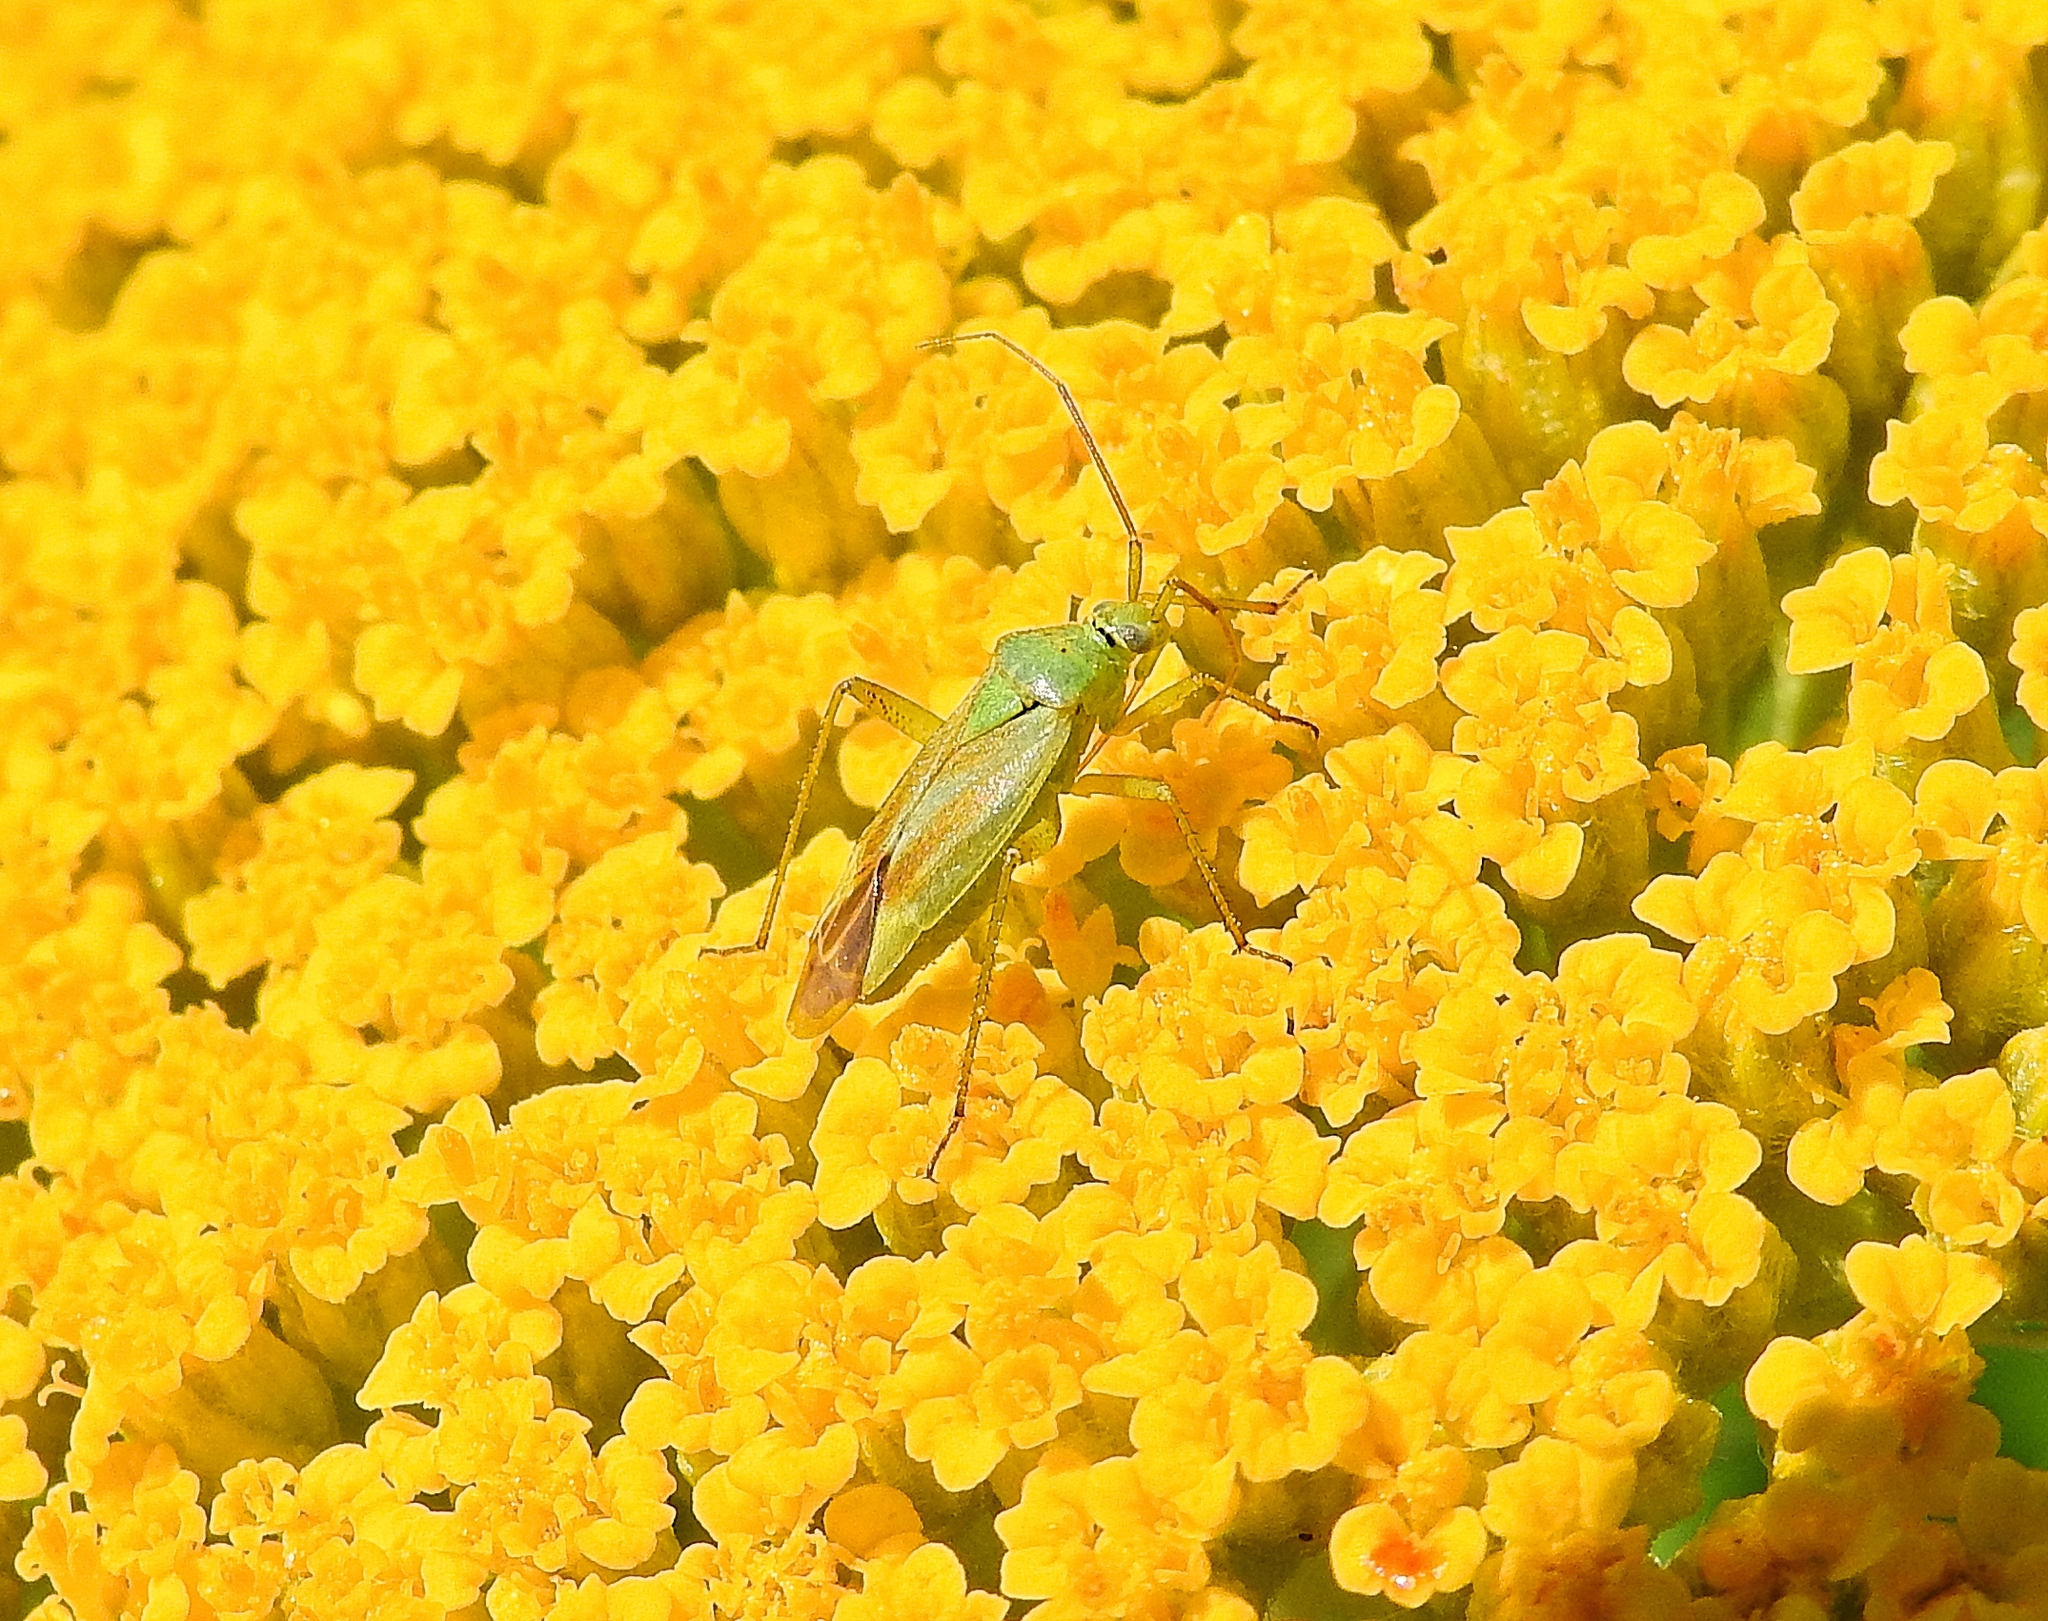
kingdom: Animalia
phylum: Arthropoda
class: Insecta
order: Hemiptera
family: Miridae
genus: Closterotomus
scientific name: Closterotomus norvegicus
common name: Plant bug
